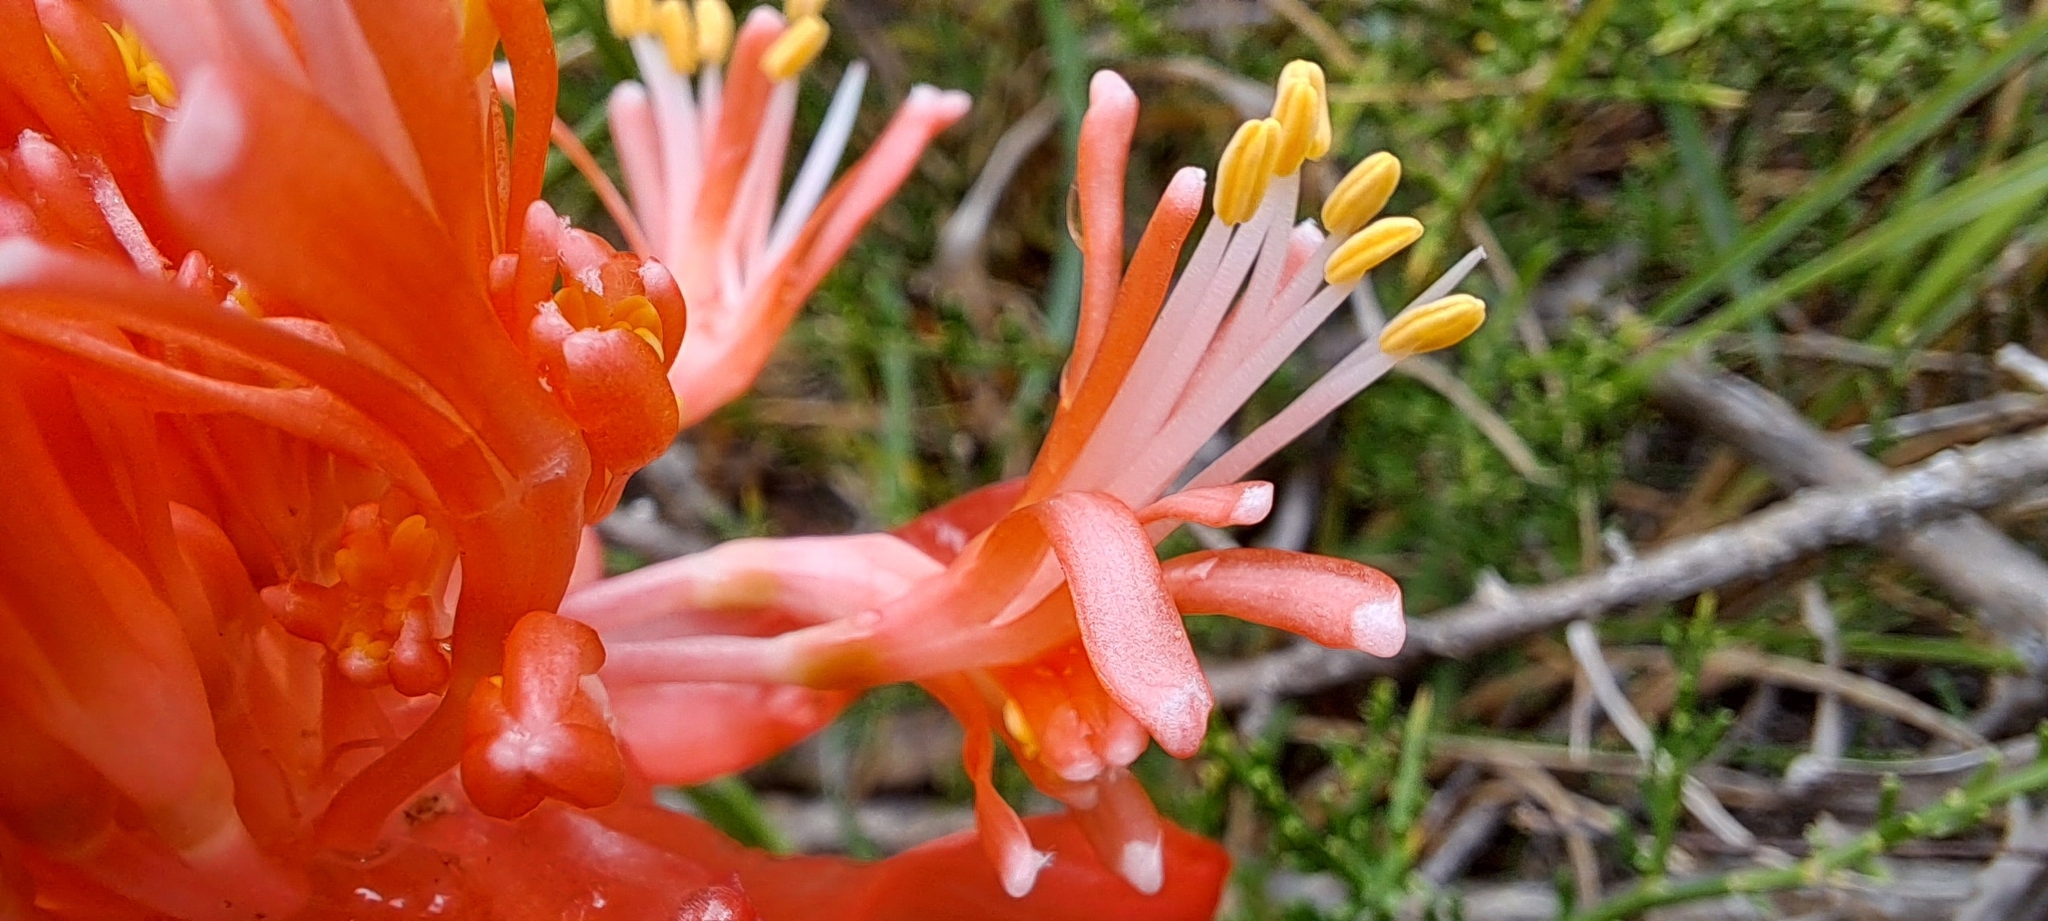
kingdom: Plantae
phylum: Tracheophyta
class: Liliopsida
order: Asparagales
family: Amaryllidaceae
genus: Haemanthus
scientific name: Haemanthus sanguineus
